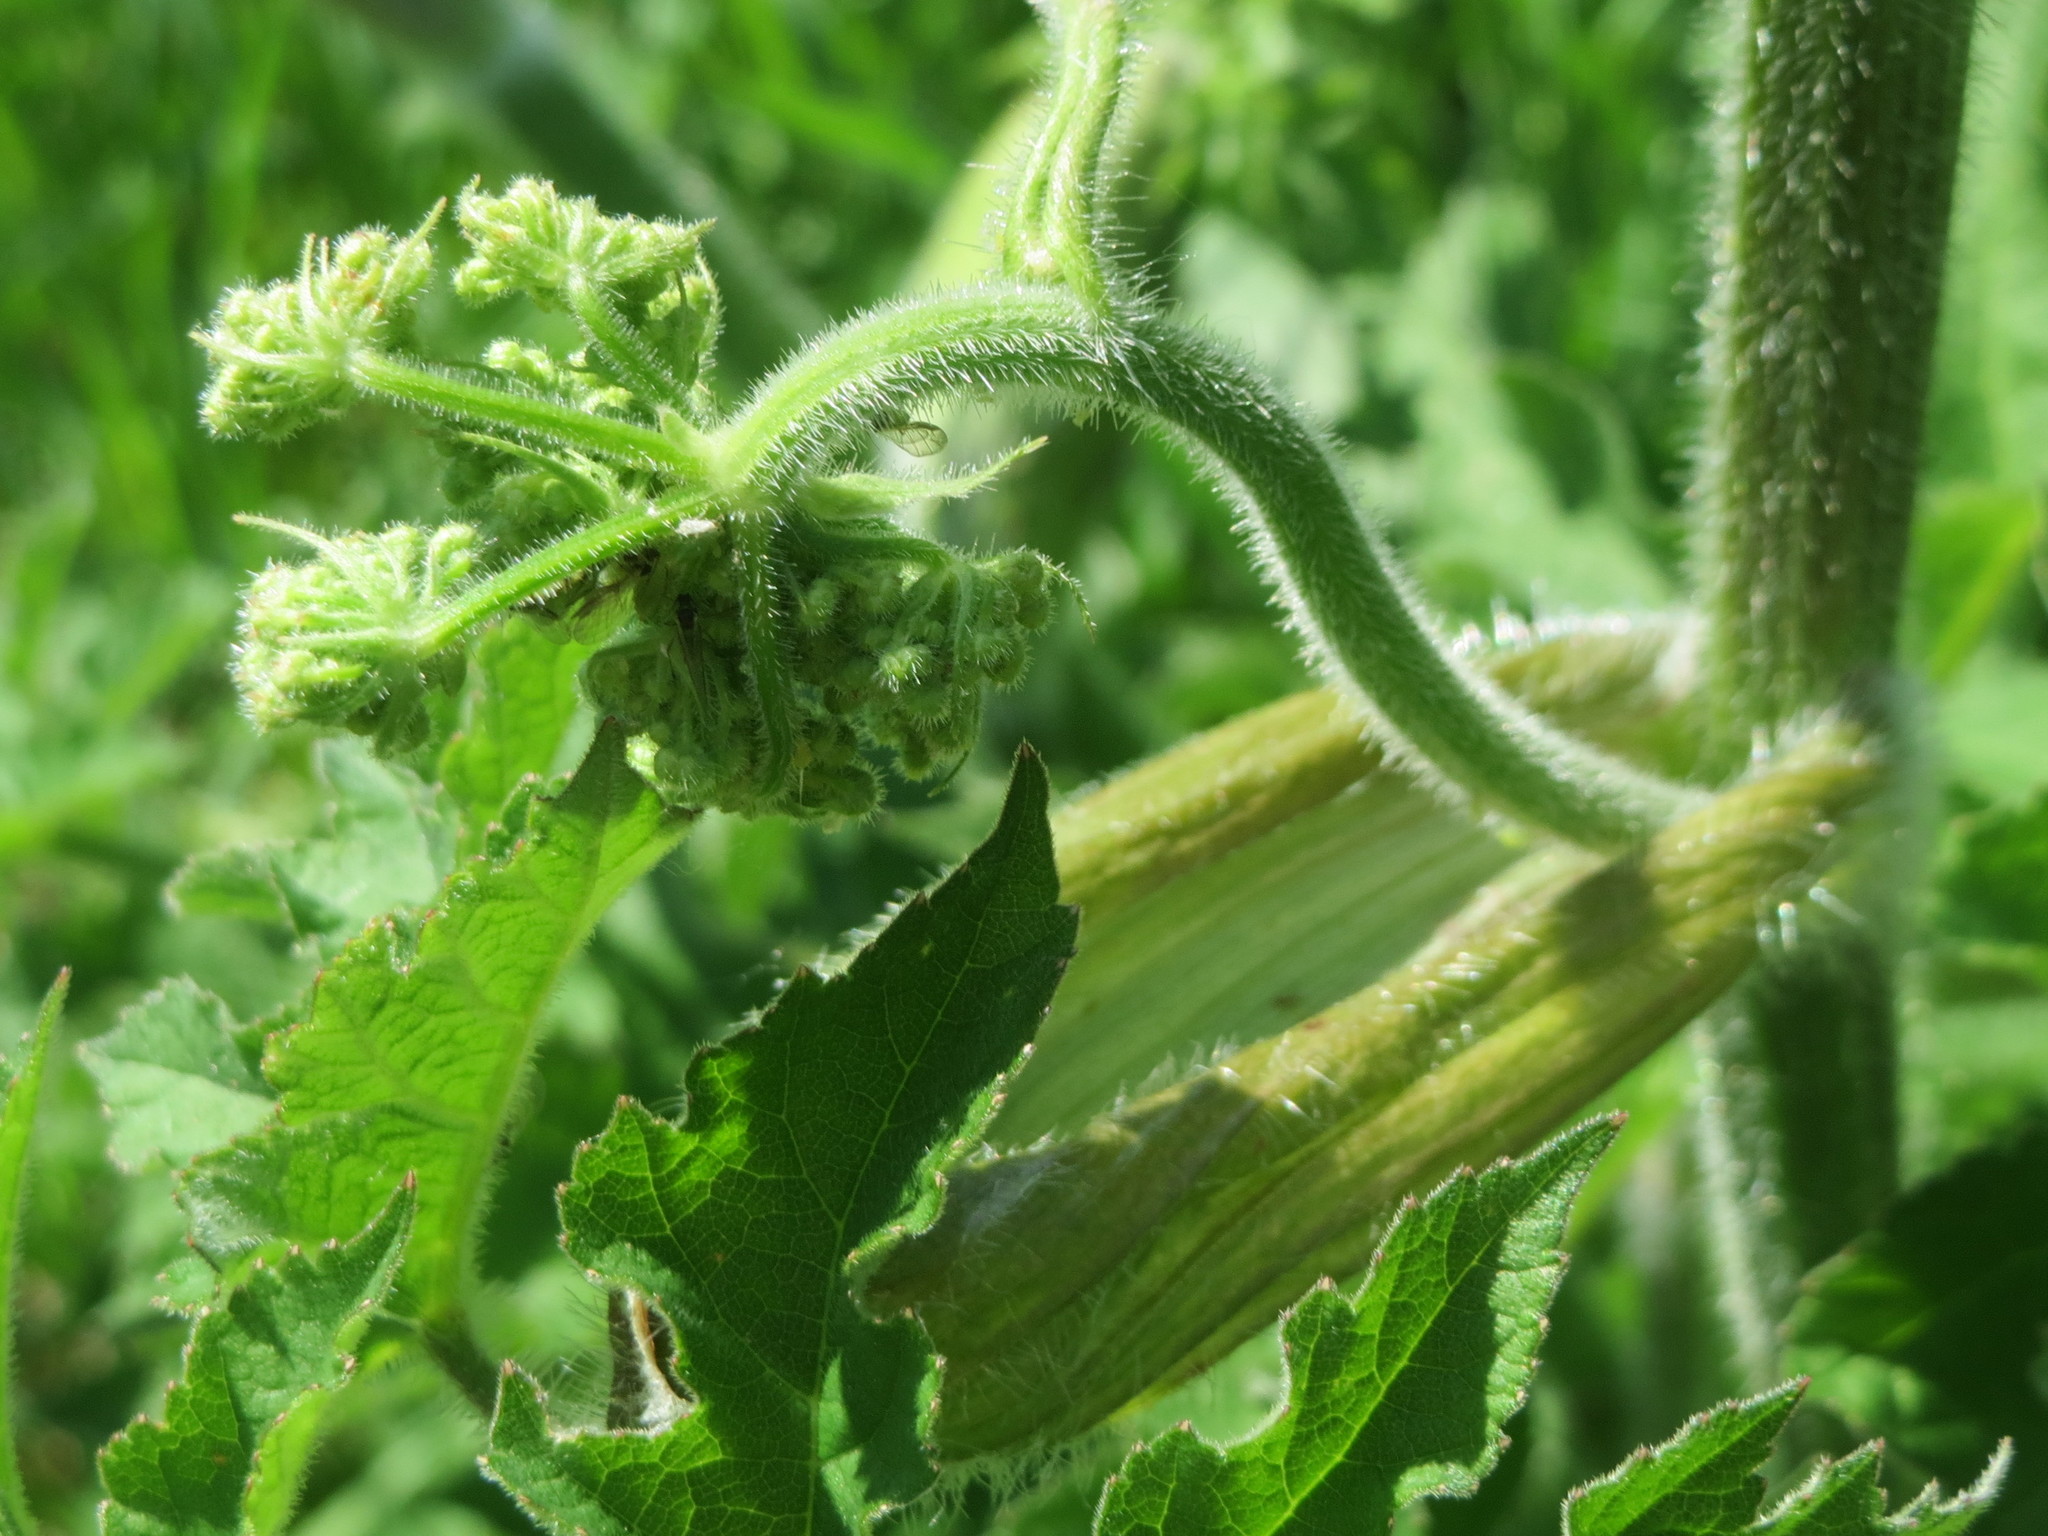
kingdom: Plantae
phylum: Tracheophyta
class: Magnoliopsida
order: Apiales
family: Apiaceae
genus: Heracleum
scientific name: Heracleum sphondylium
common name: Hogweed
